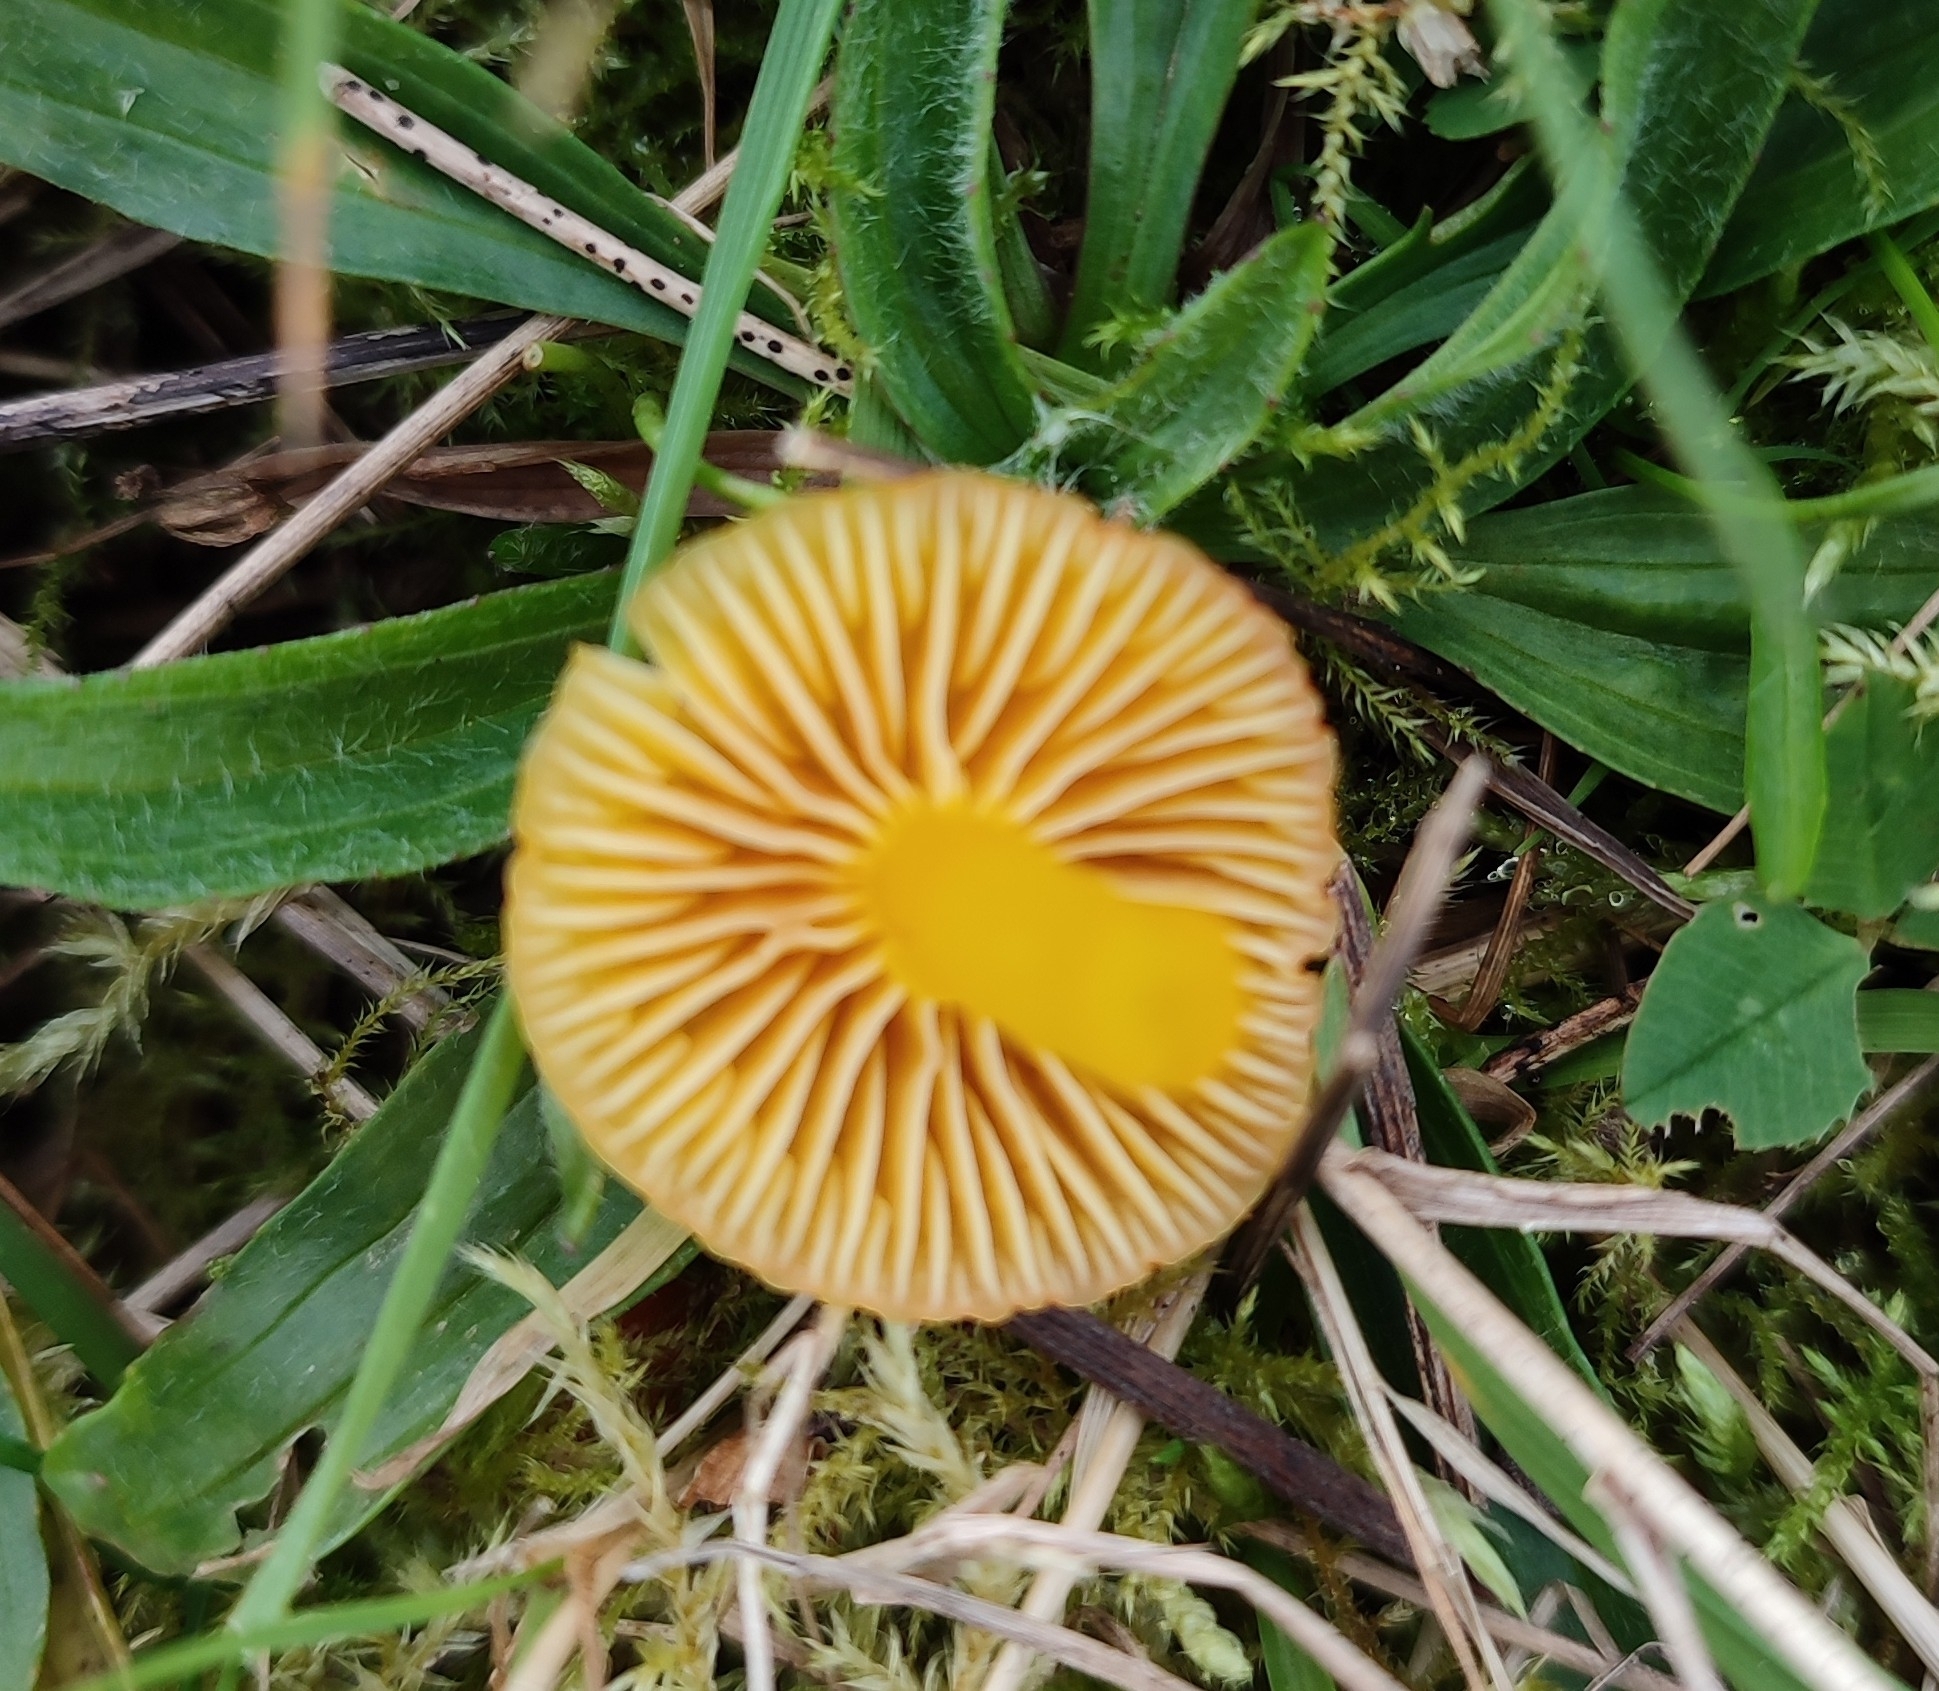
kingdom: Fungi
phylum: Basidiomycota
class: Agaricomycetes
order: Agaricales
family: Hygrophoraceae
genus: Hygrocybe
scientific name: Hygrocybe ceracea
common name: Butter waxcap
